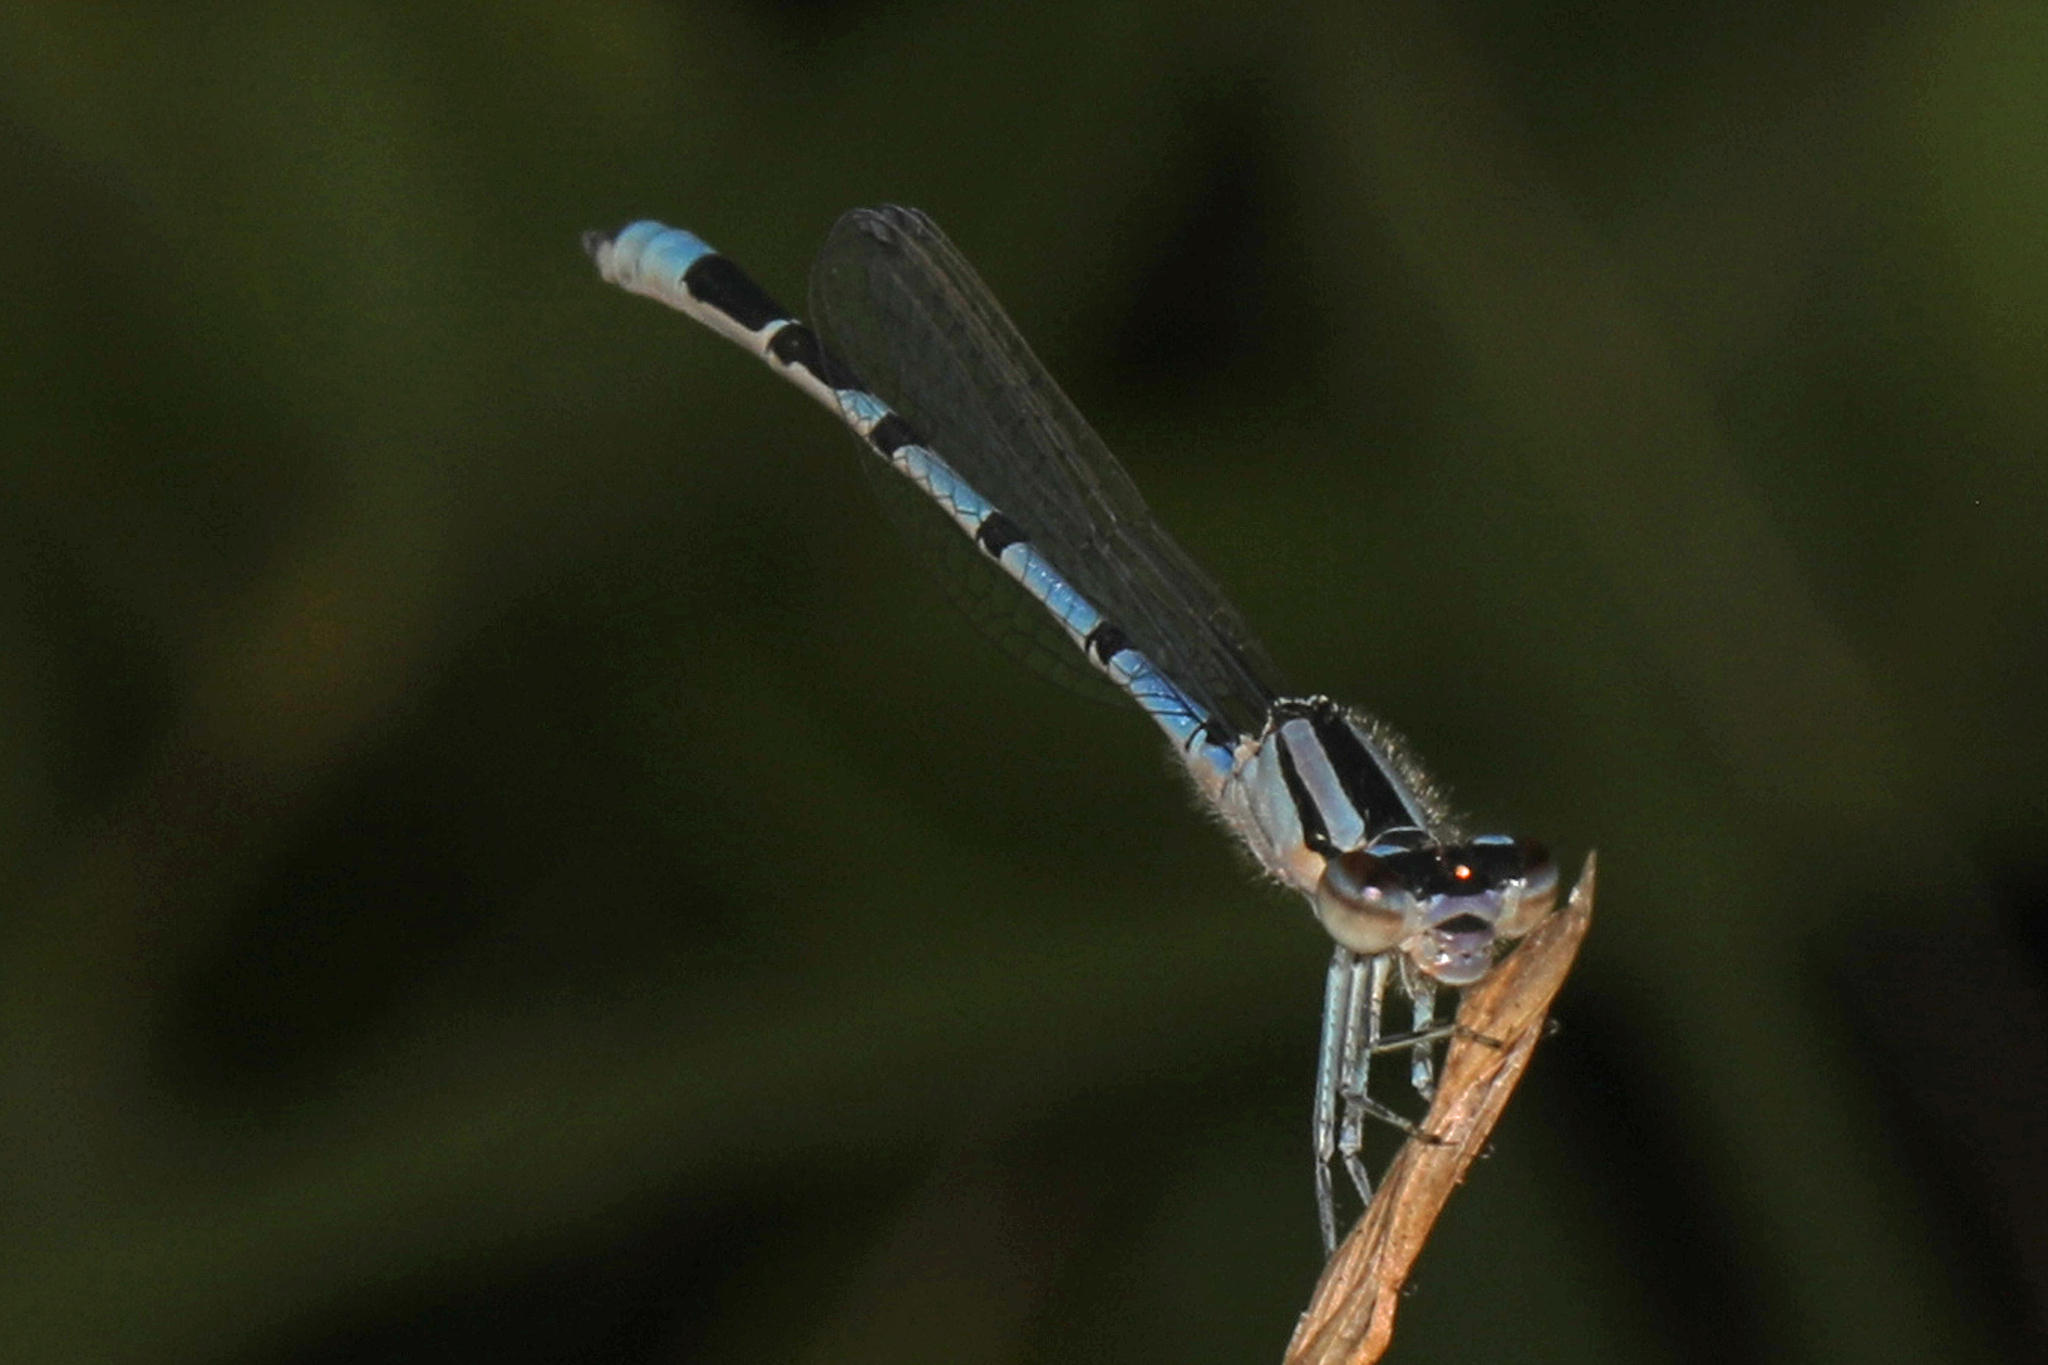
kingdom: Animalia
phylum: Arthropoda
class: Insecta
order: Odonata
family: Coenagrionidae
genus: Enallagma
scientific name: Enallagma civile
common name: Damselfly
